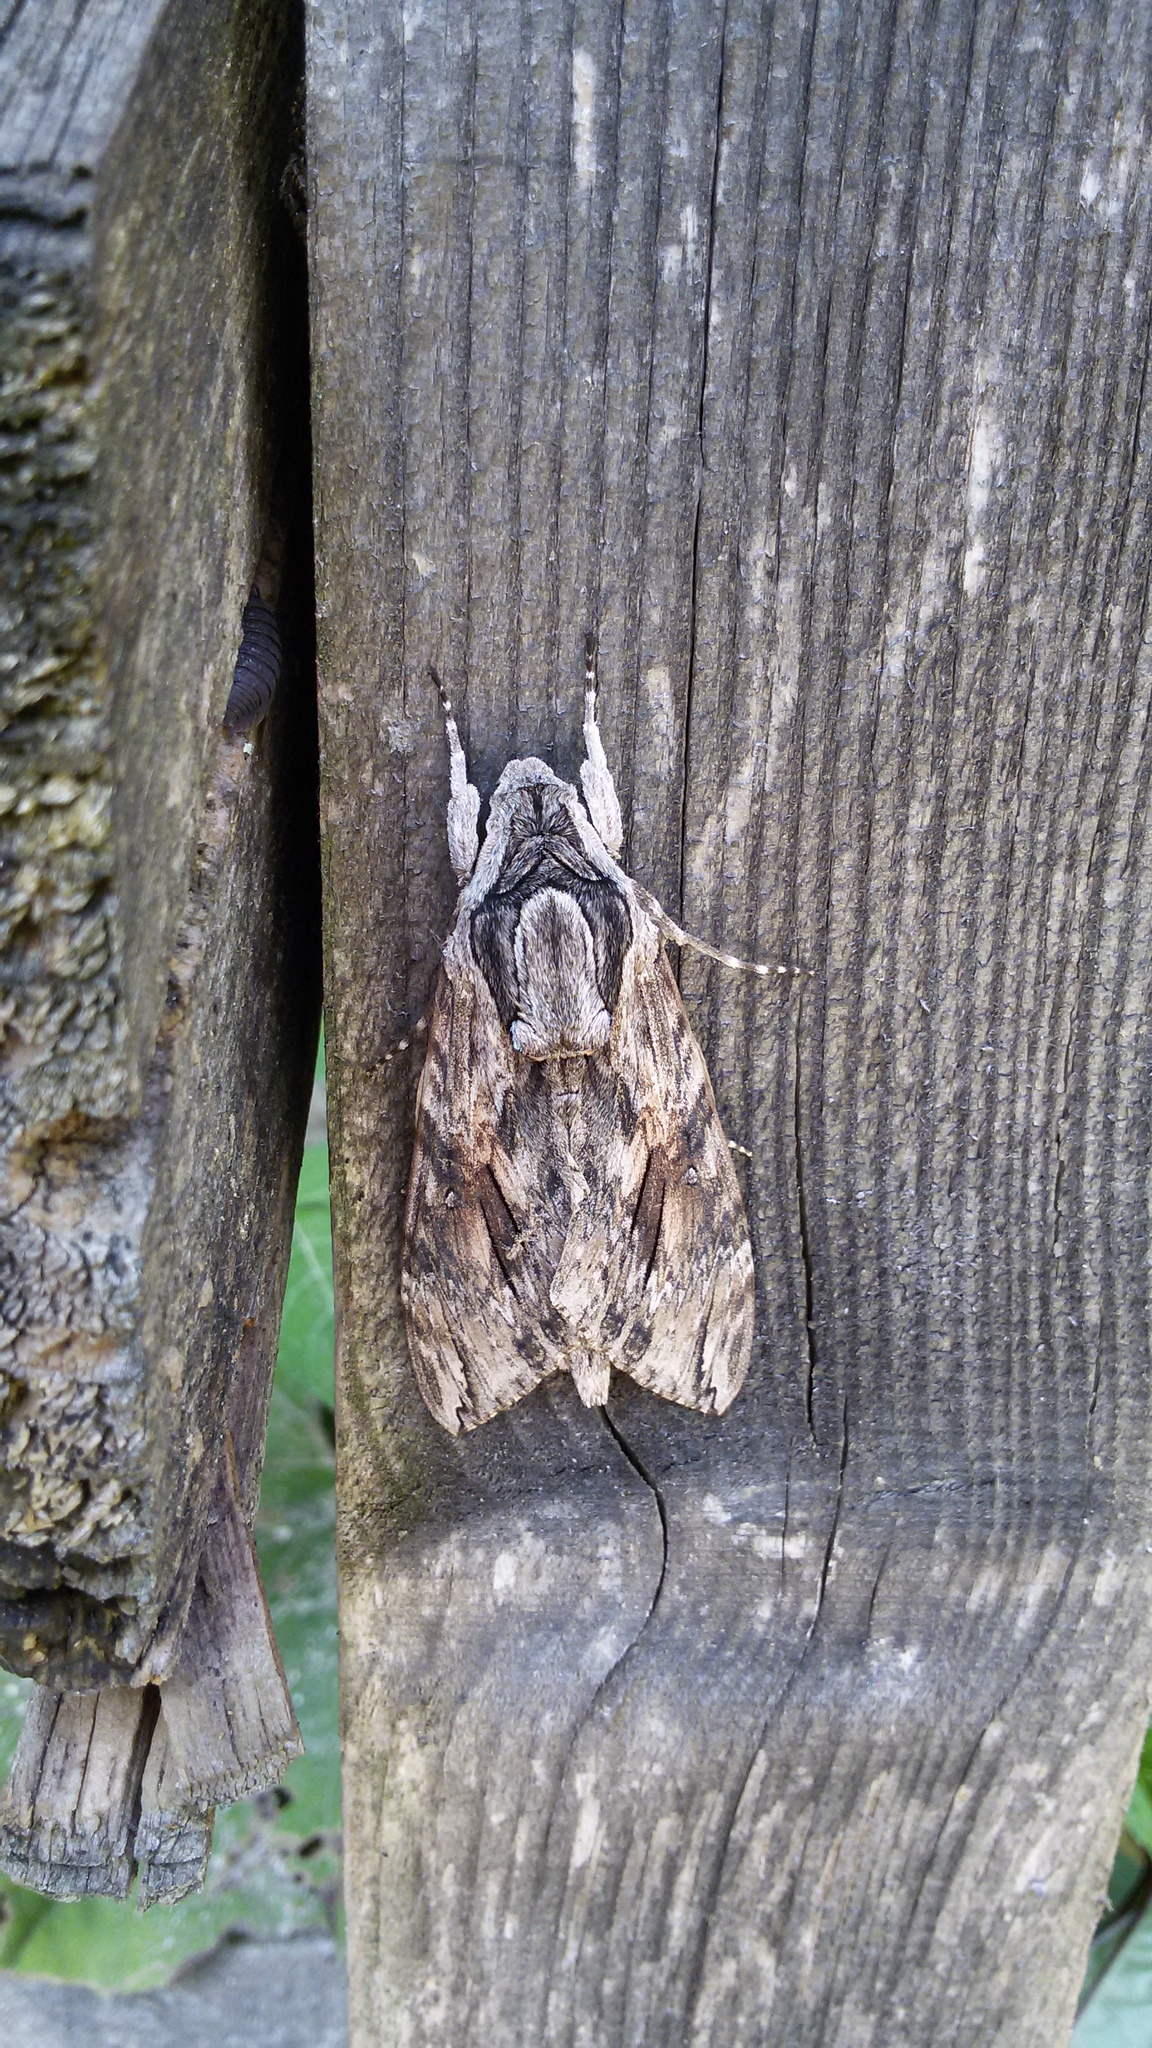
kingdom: Animalia
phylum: Arthropoda
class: Insecta
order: Lepidoptera
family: Sphingidae
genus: Agrius
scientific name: Agrius convolvuli
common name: Convolvulus hawkmoth
